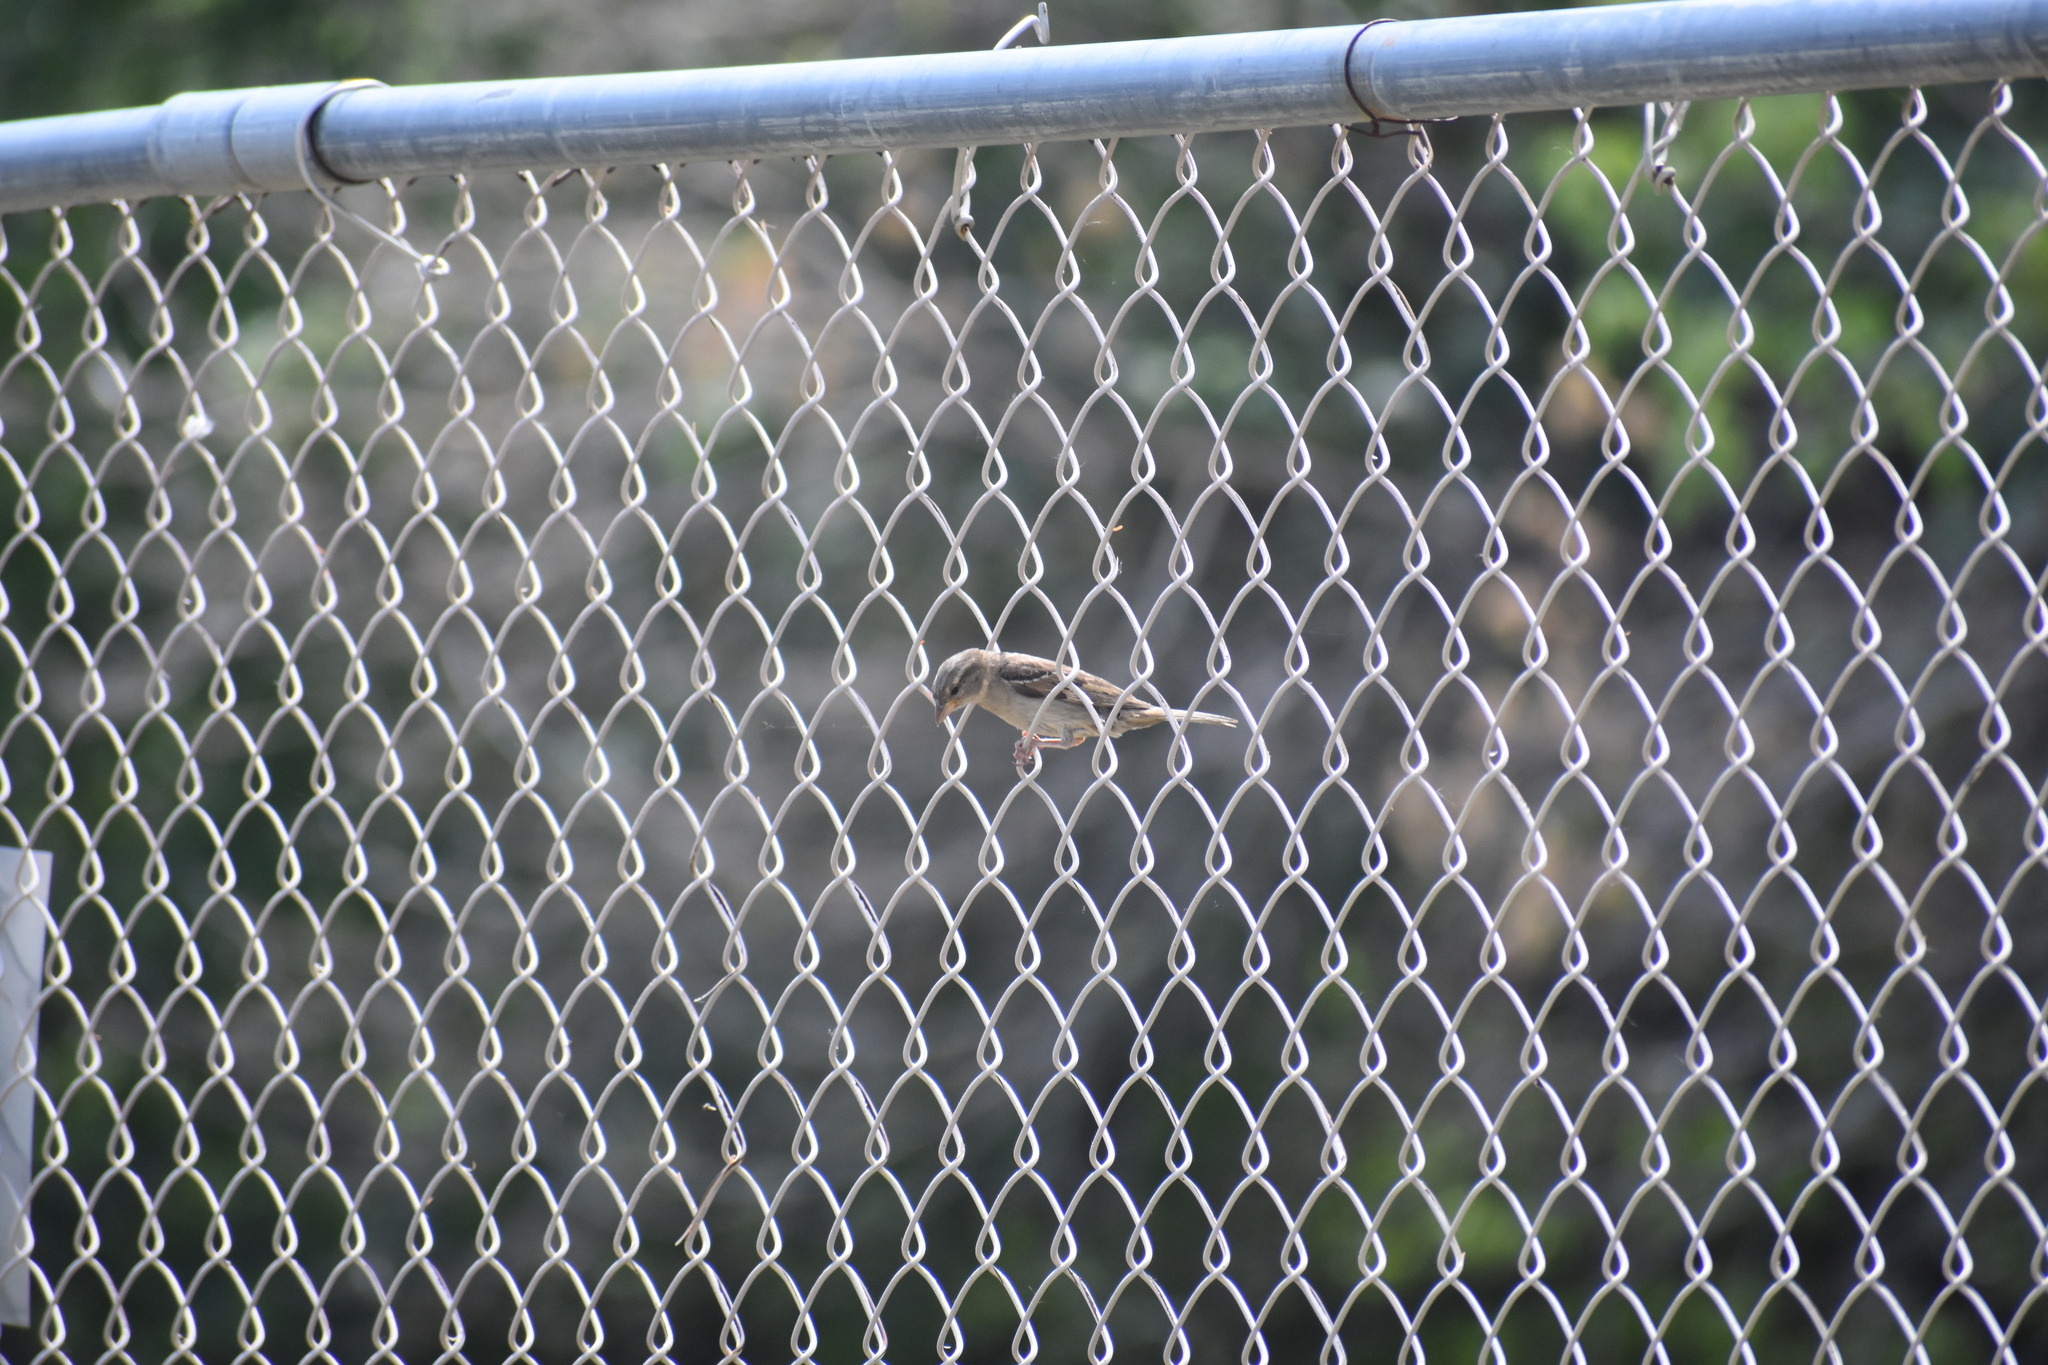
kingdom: Animalia
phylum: Chordata
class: Aves
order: Passeriformes
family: Passeridae
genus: Passer
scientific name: Passer domesticus
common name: House sparrow
